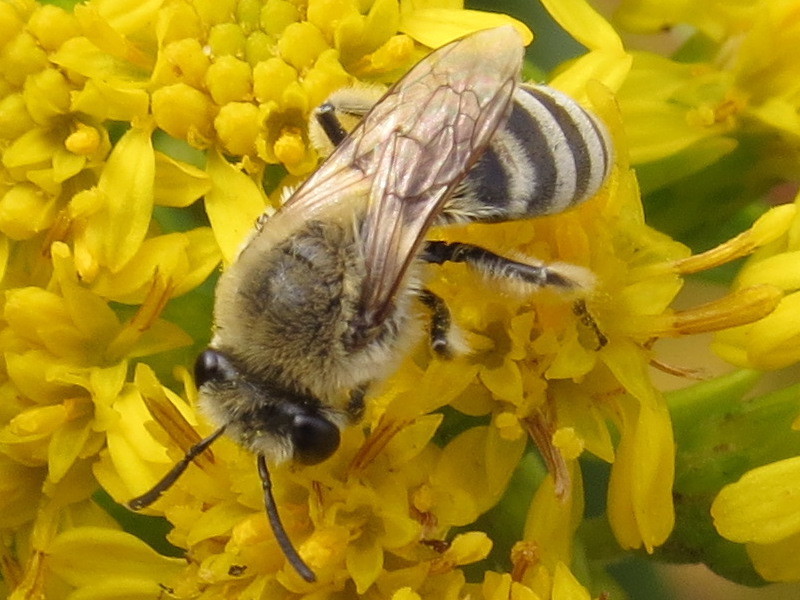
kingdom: Animalia
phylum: Arthropoda
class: Insecta
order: Hymenoptera
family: Colletidae
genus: Colletes
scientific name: Colletes speculiferus
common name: Beach dune cellophane bee
